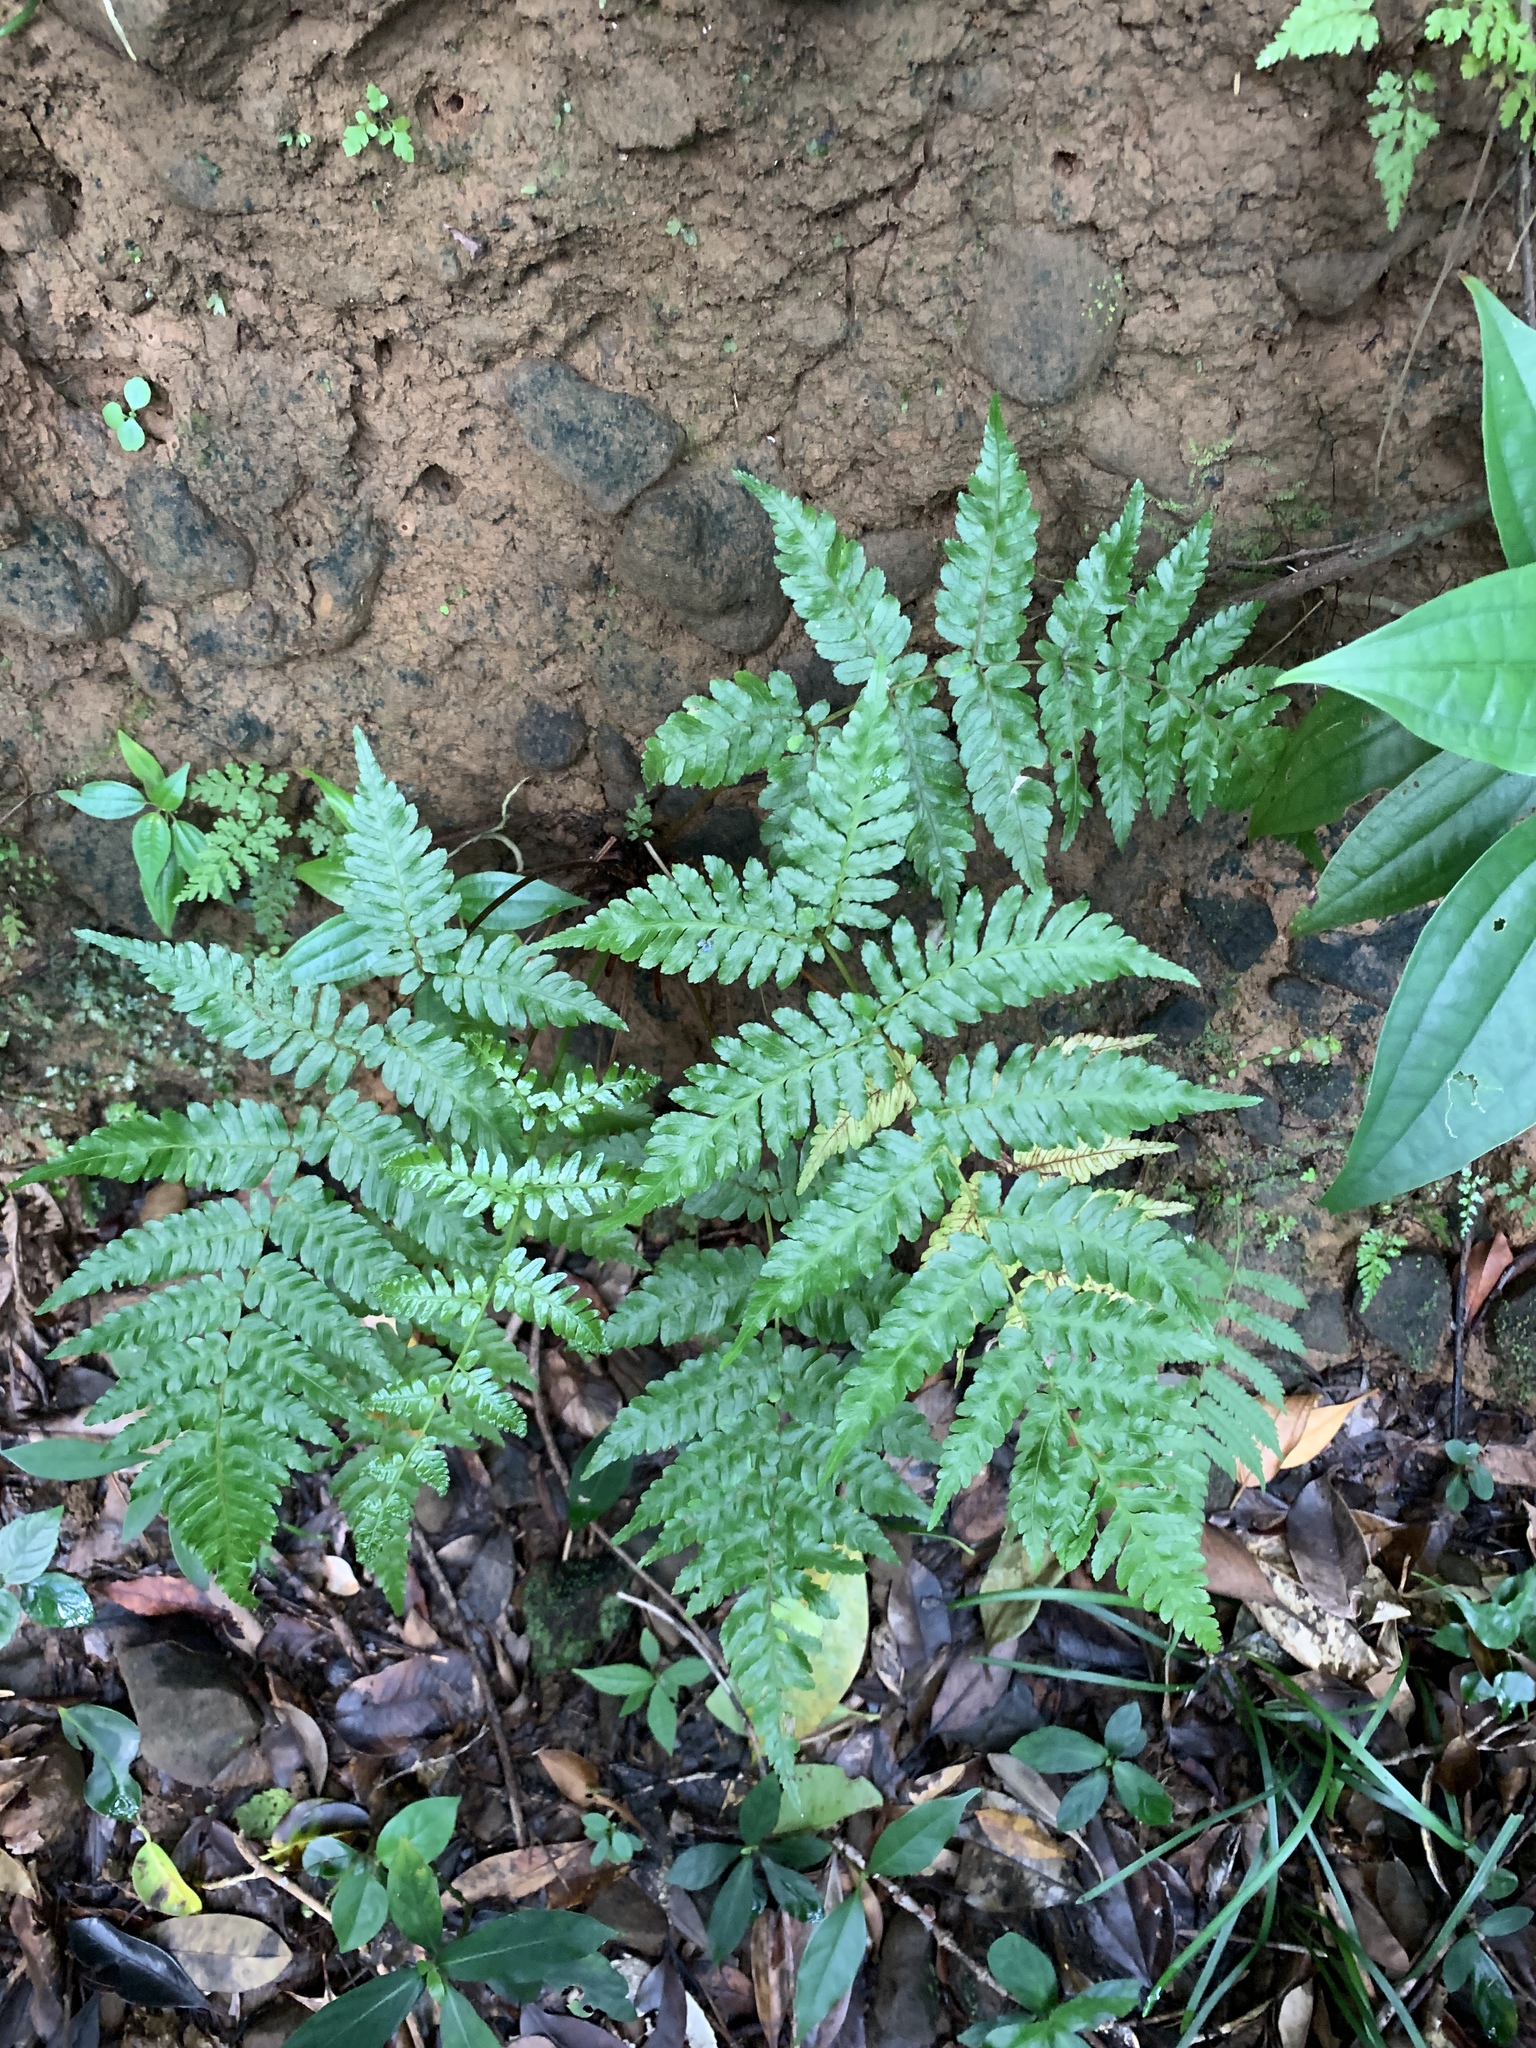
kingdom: Plantae
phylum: Tracheophyta
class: Polypodiopsida
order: Cyatheales
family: Cyatheaceae
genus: Alsophila
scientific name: Alsophila fenicis
